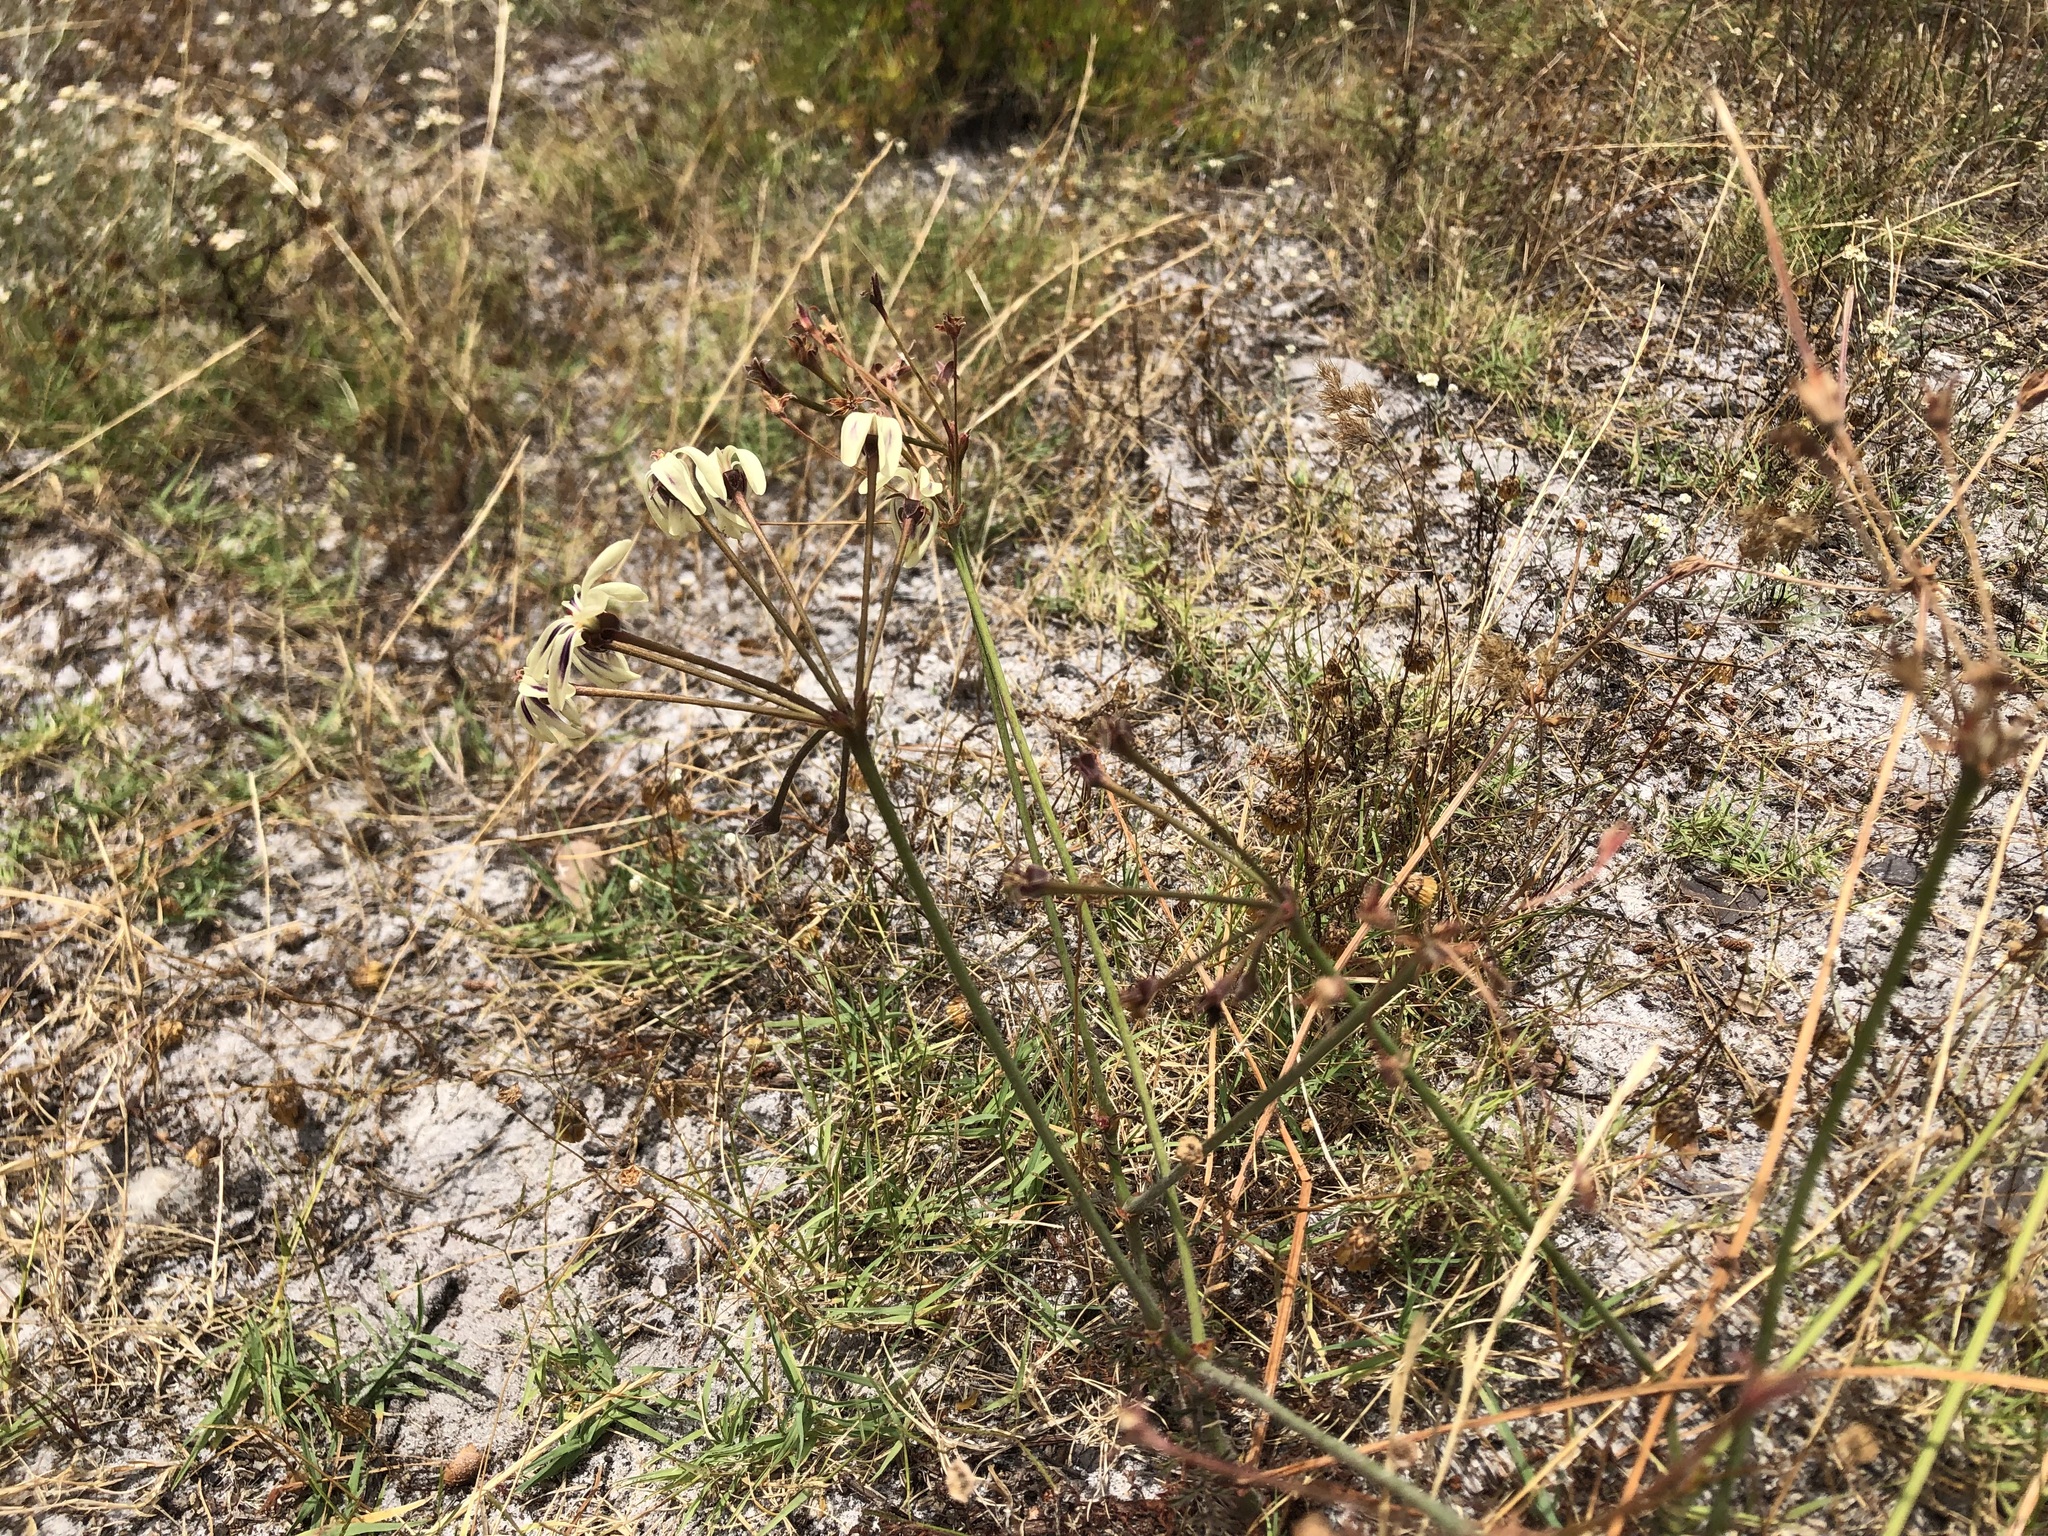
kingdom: Plantae
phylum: Tracheophyta
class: Magnoliopsida
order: Geraniales
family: Geraniaceae
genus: Pelargonium
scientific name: Pelargonium triste
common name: Night-scent pelargonium
